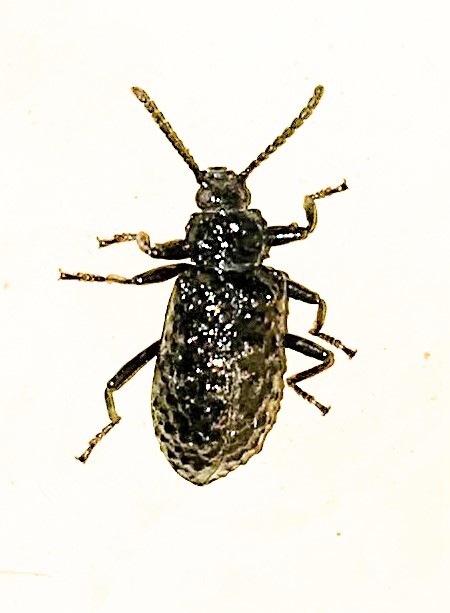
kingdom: Animalia
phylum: Arthropoda
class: Insecta
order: Coleoptera
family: Tenebrionidae
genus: Phymatestes
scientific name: Phymatestes tuberculatus
